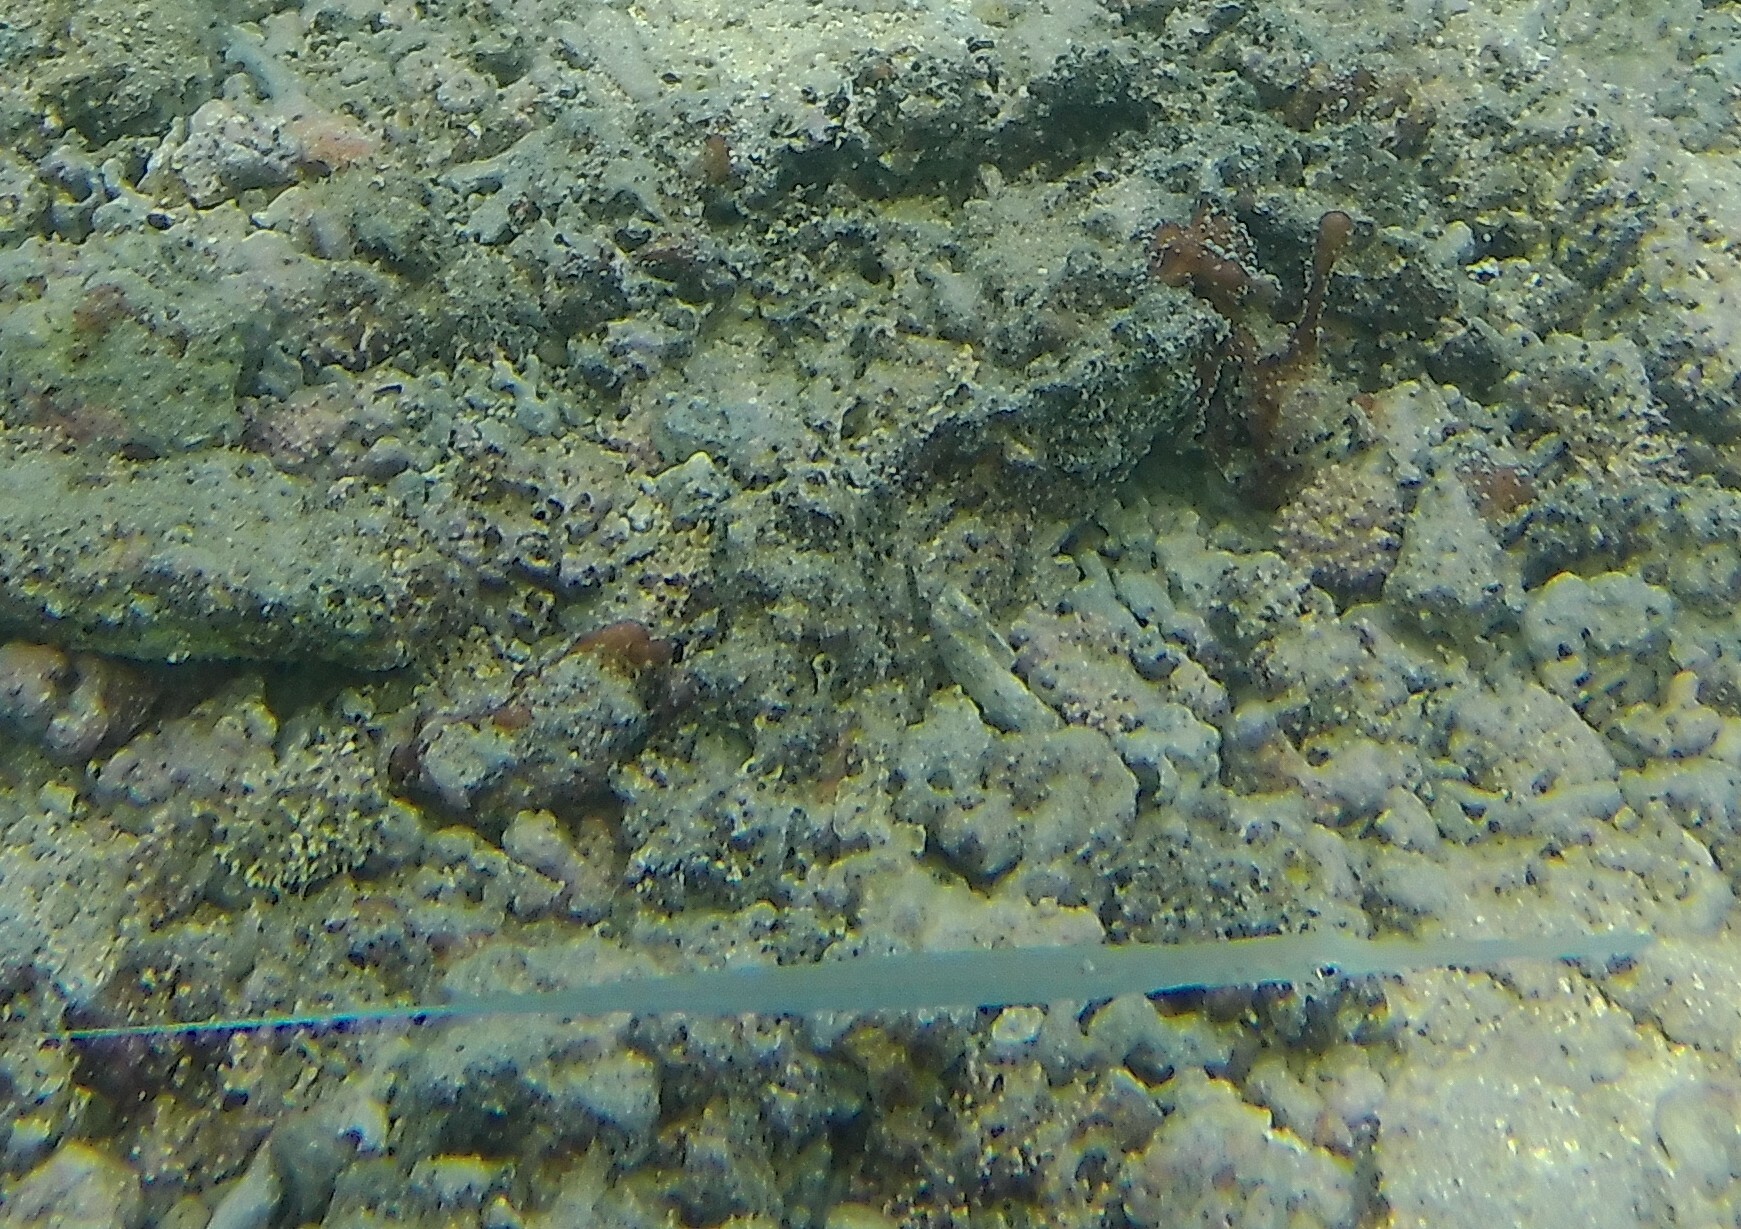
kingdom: Animalia
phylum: Chordata
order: Syngnathiformes
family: Fistulariidae
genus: Fistularia
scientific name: Fistularia commersonii
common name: Bluespotted cornetfish
